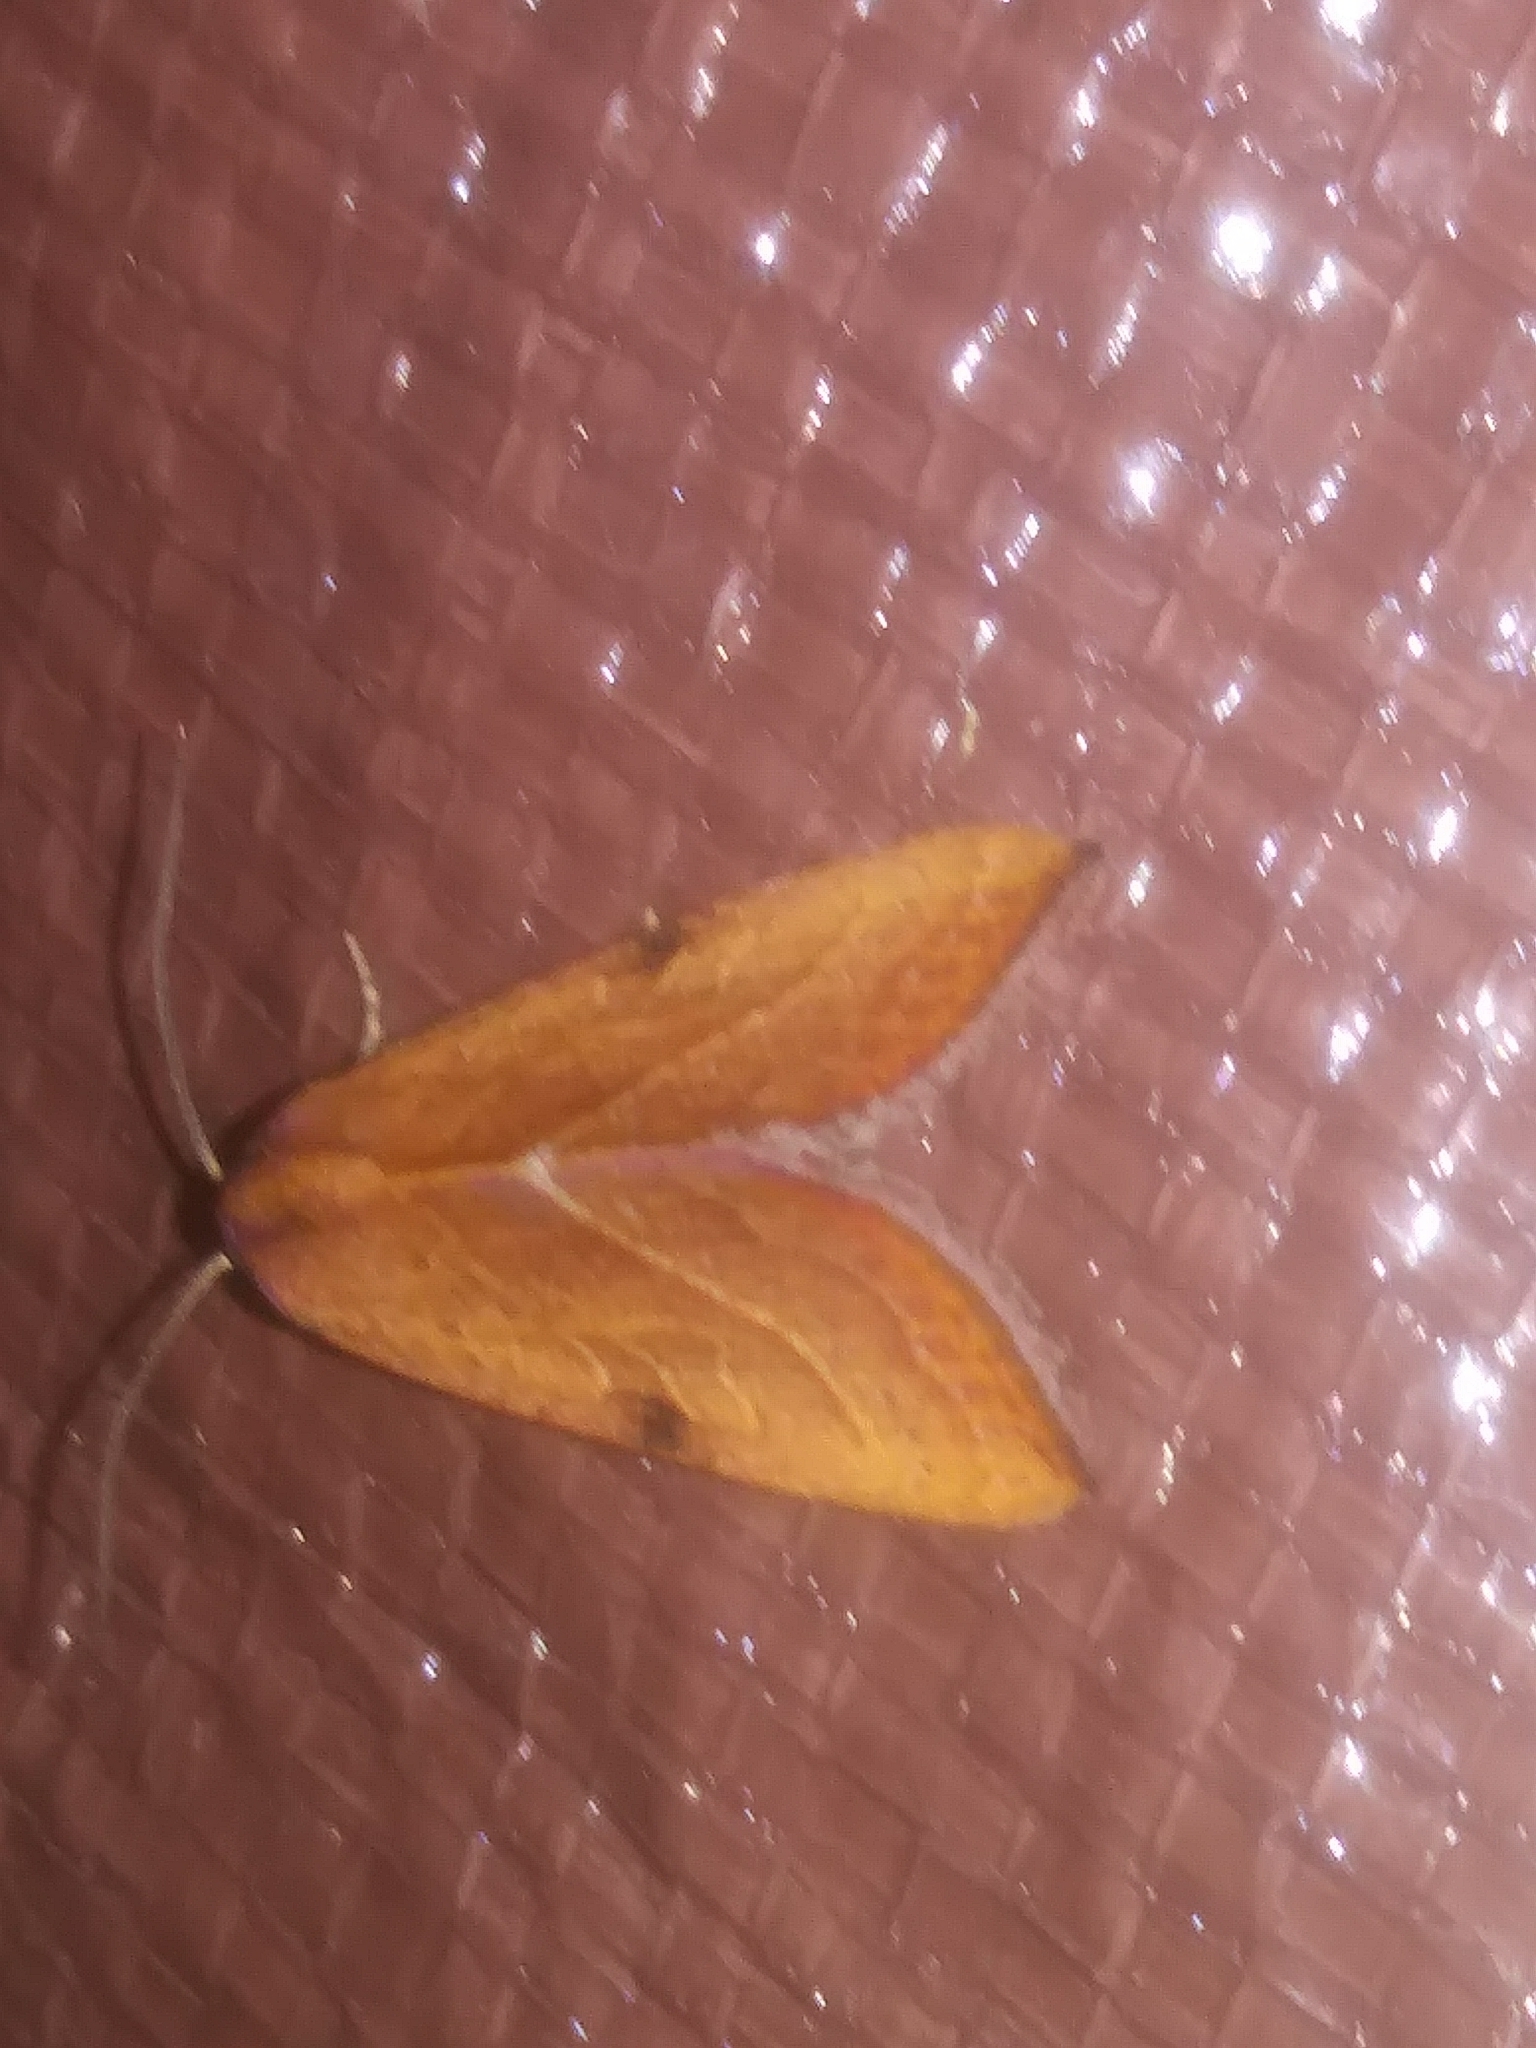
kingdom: Animalia
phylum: Arthropoda
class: Insecta
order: Lepidoptera
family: Noctuidae
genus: Galgula
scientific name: Galgula partita
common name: Wedgeling
